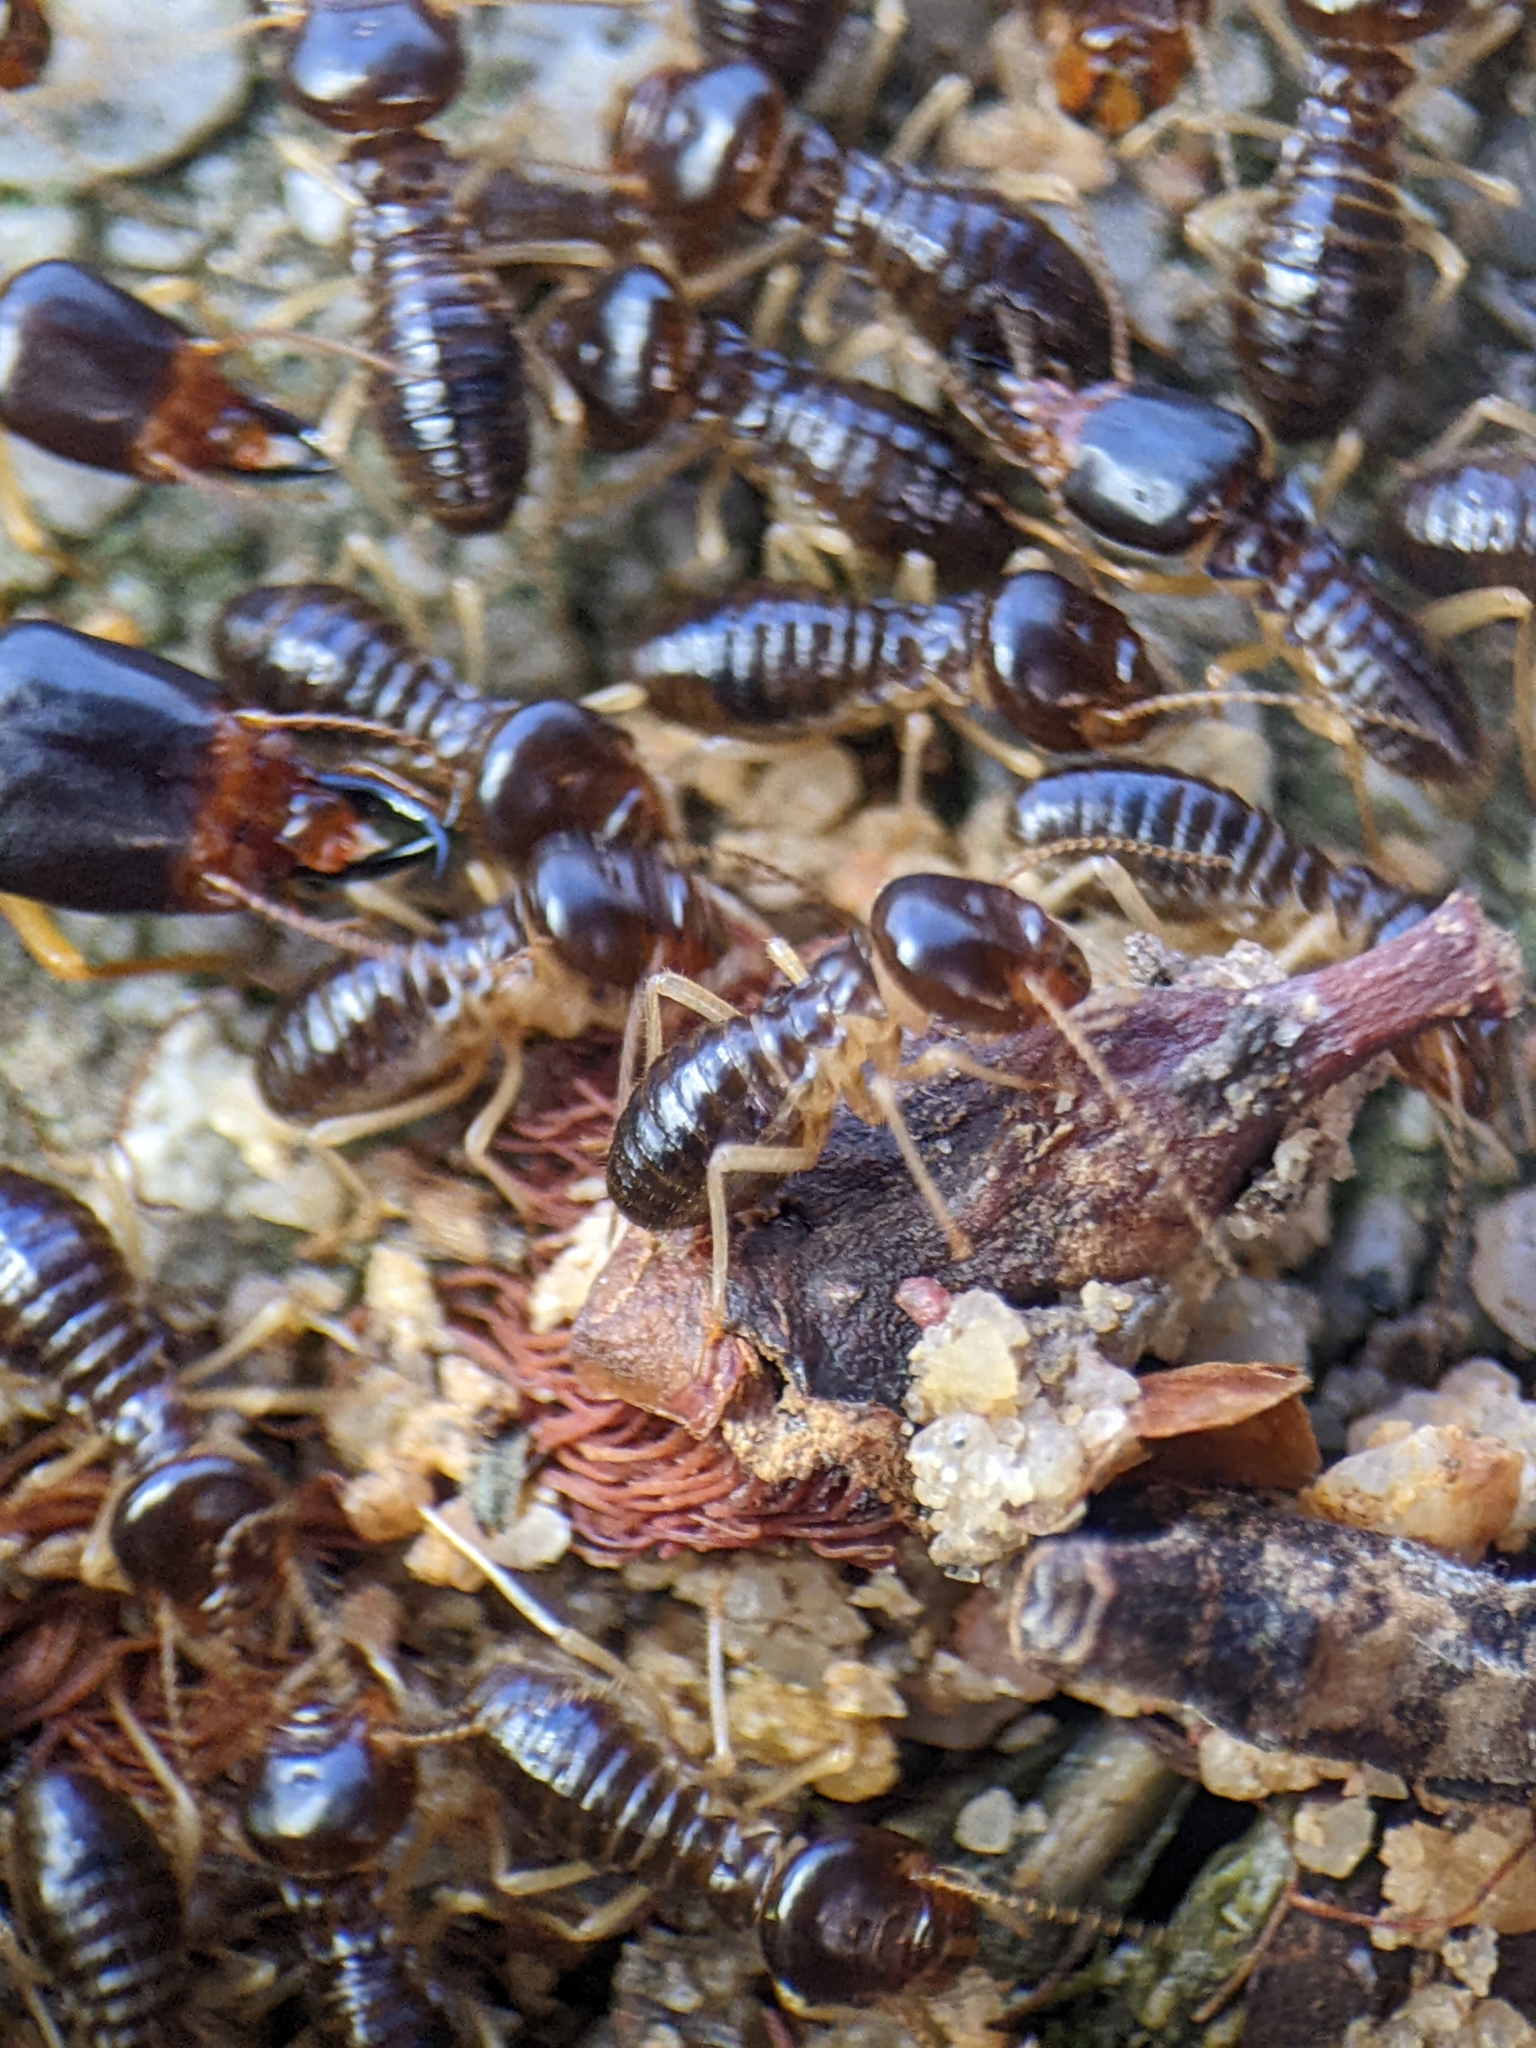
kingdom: Animalia
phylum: Arthropoda
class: Insecta
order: Blattodea
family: Termitidae
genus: Macrotermes
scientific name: Macrotermes carbonarius
